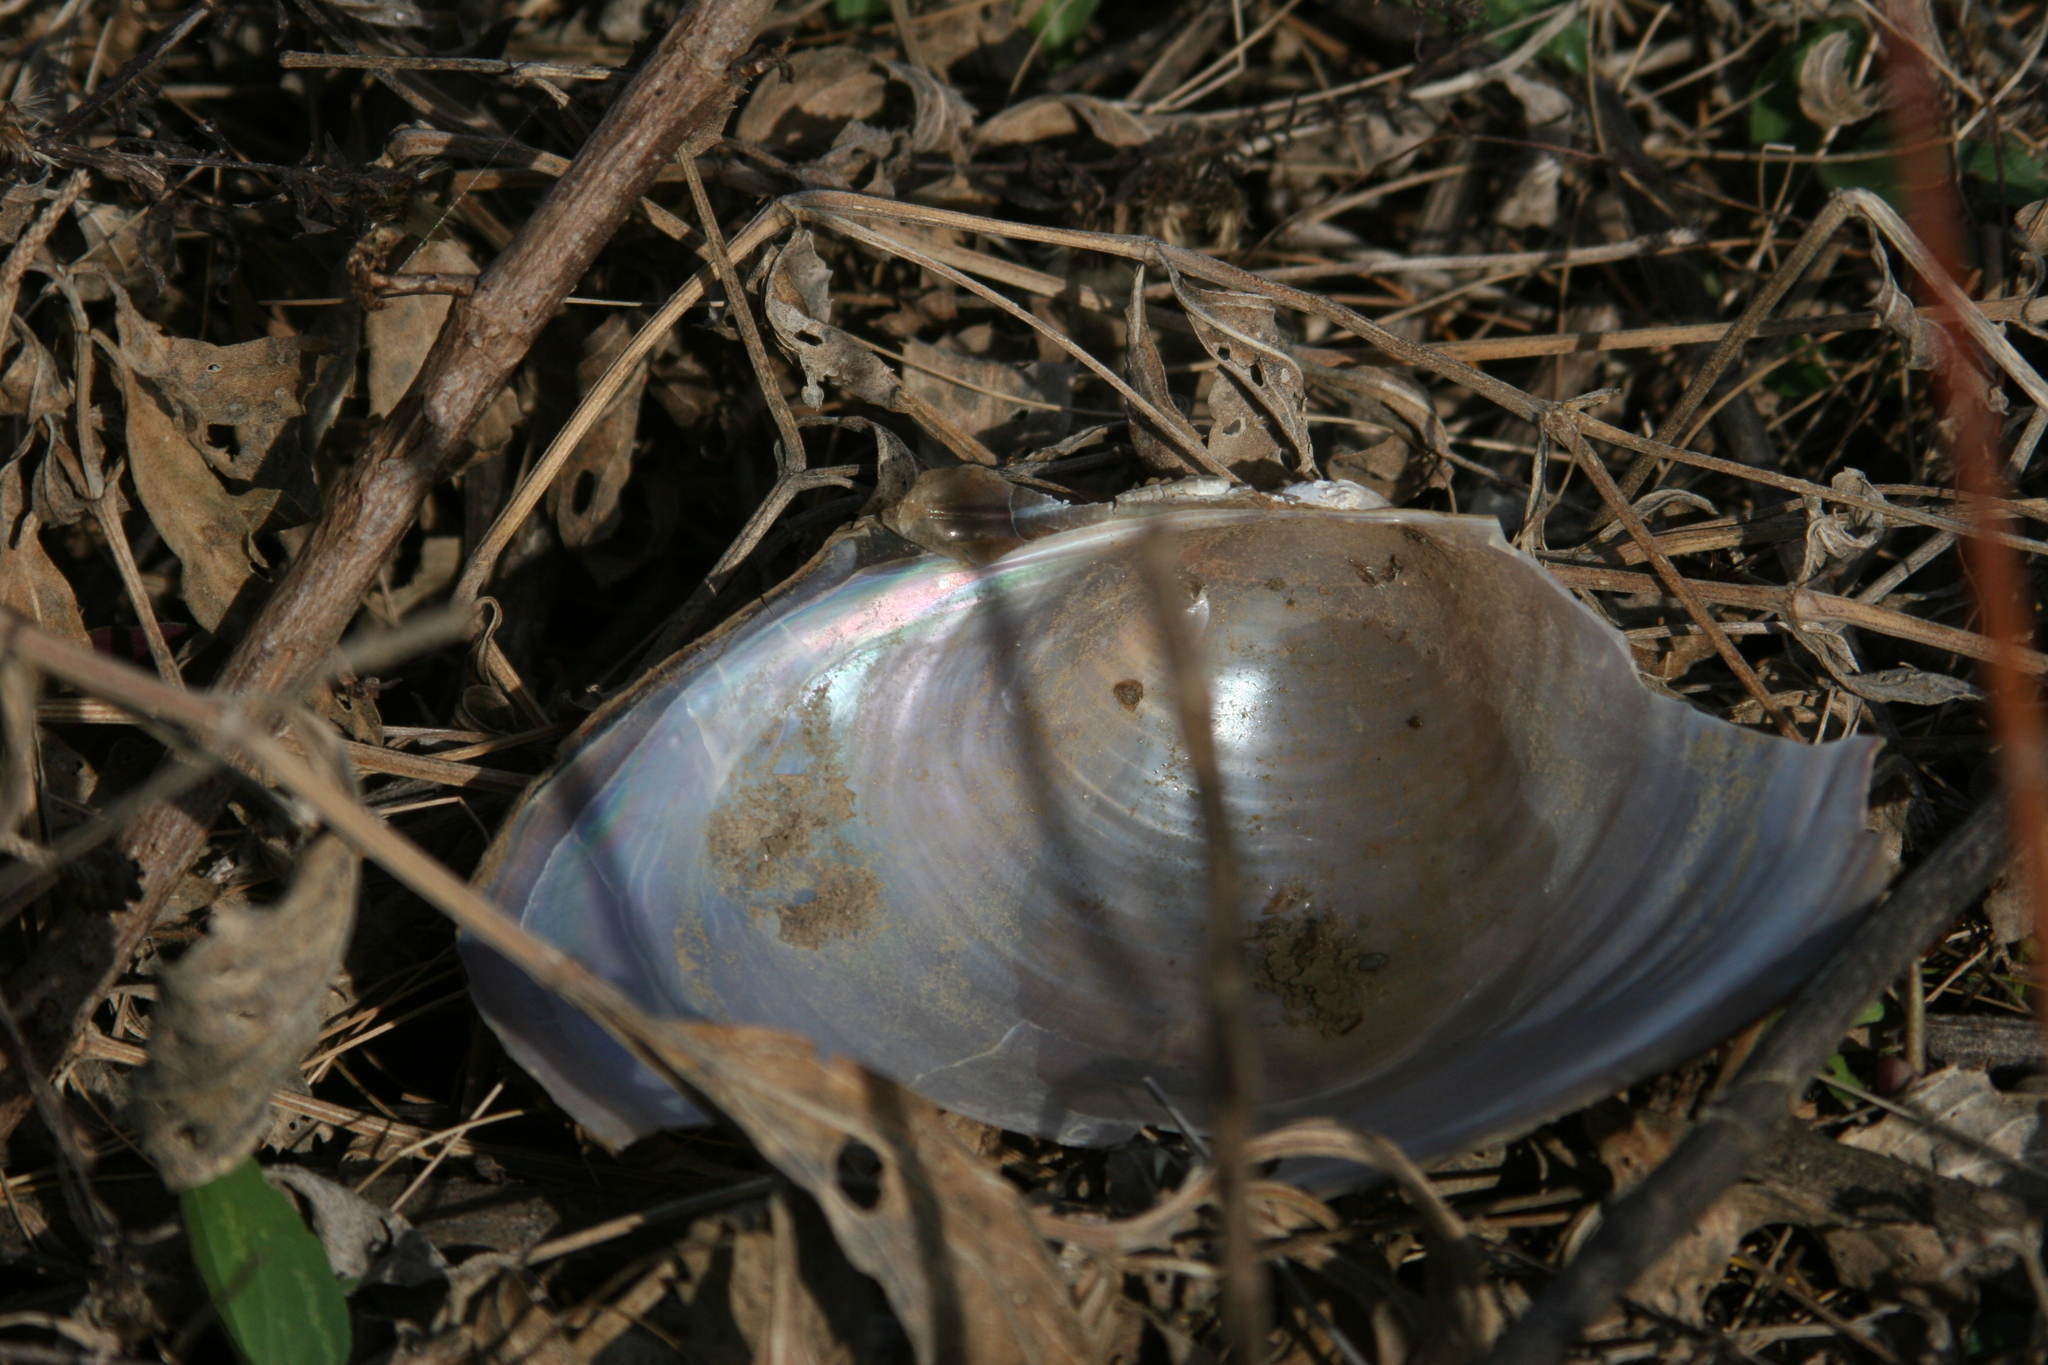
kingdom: Animalia
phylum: Mollusca
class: Bivalvia
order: Unionida
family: Unionidae
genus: Pyganodon
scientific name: Pyganodon grandis
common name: Giant floater
